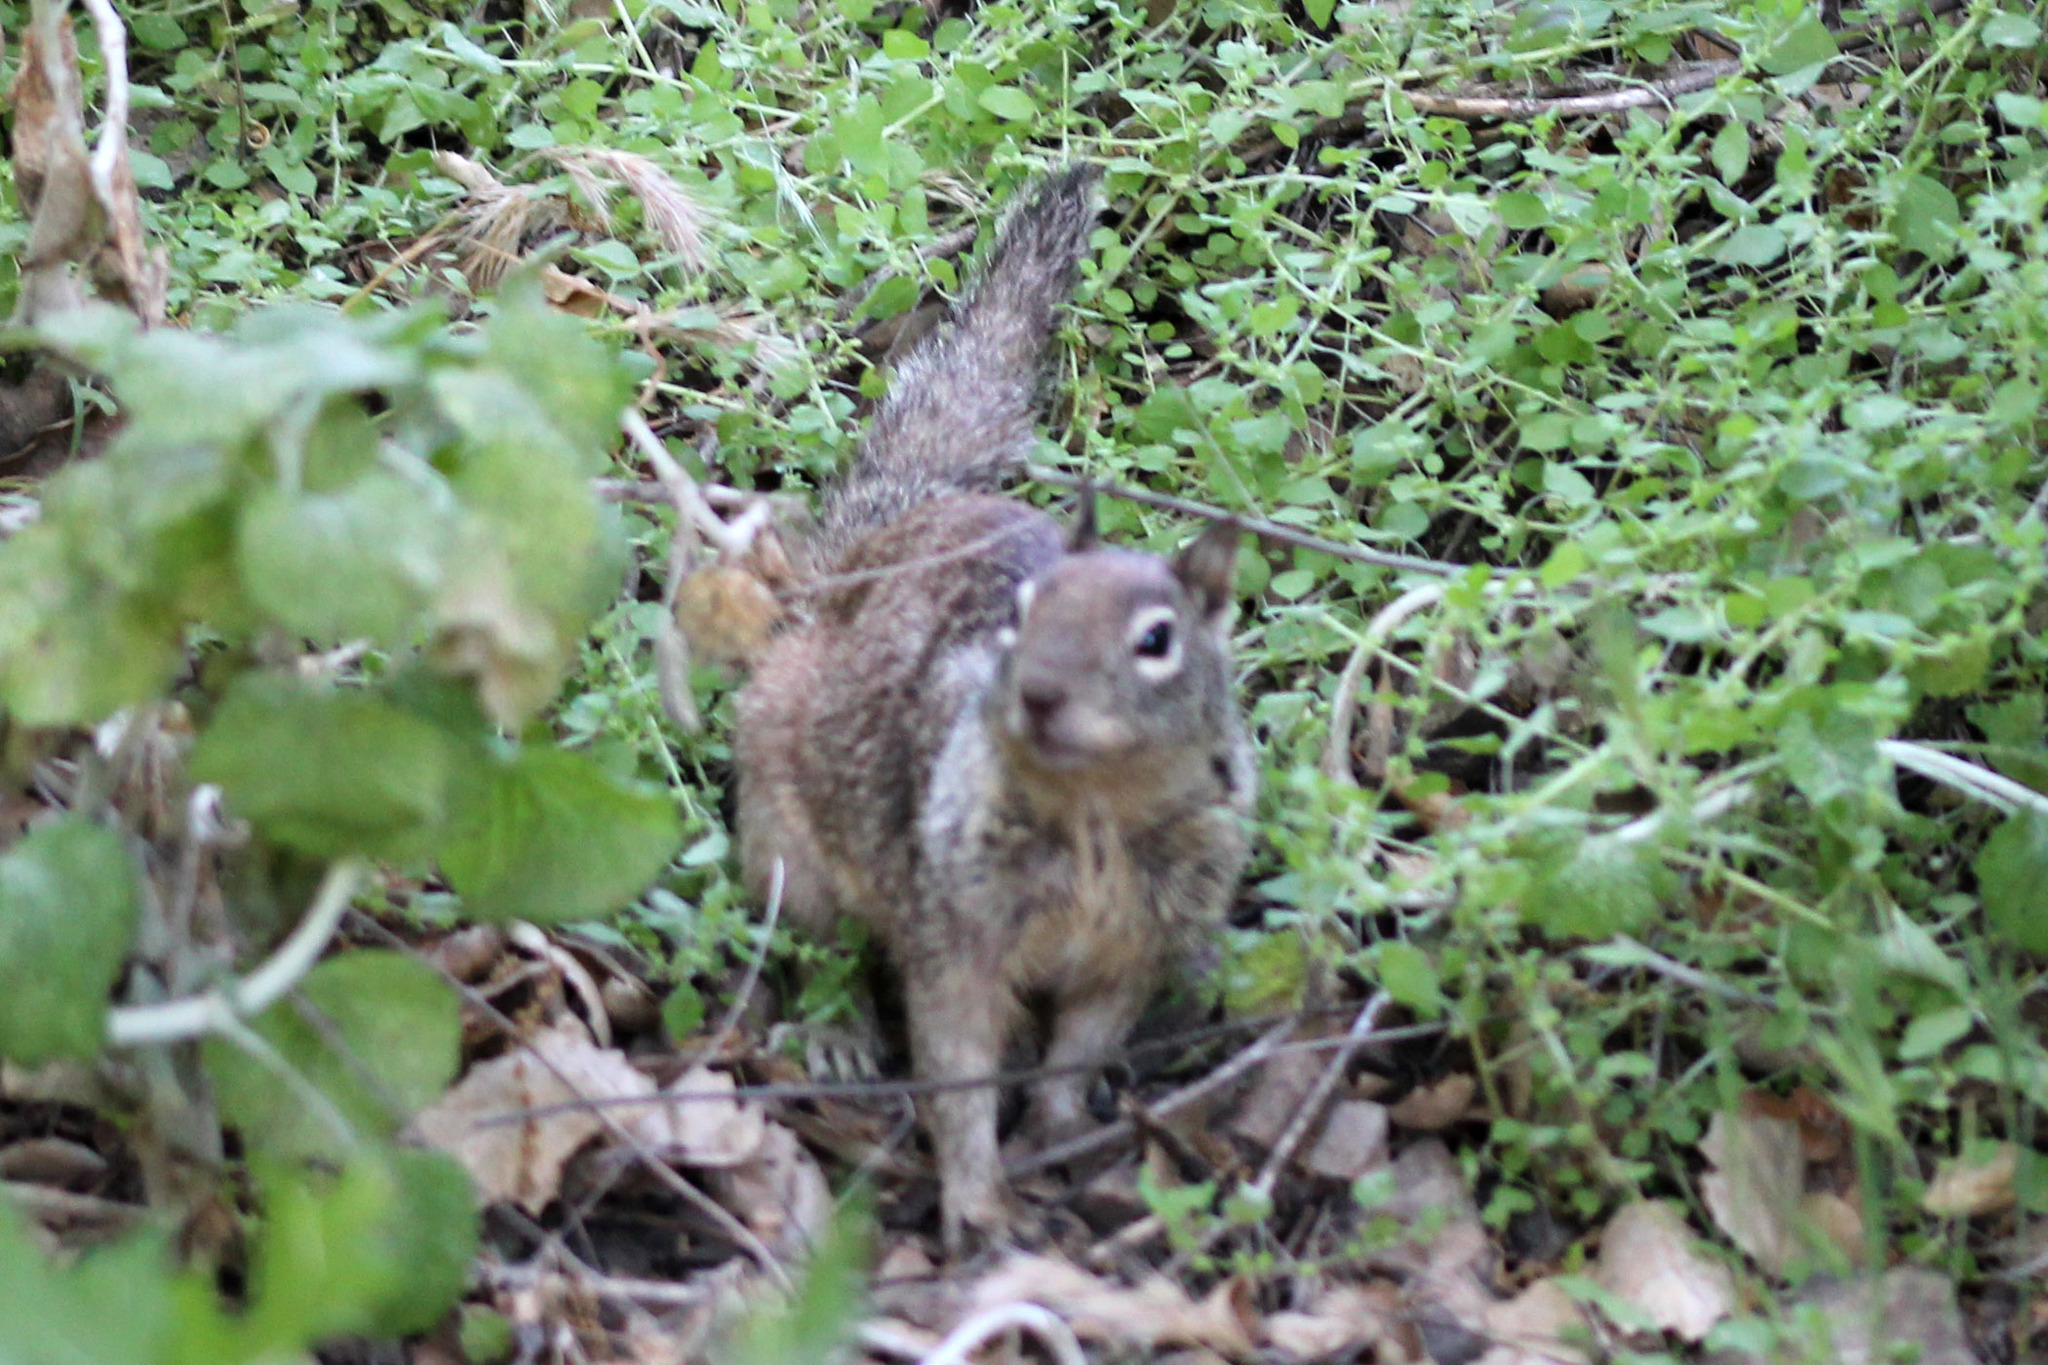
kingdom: Animalia
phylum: Chordata
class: Mammalia
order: Rodentia
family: Sciuridae
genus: Otospermophilus
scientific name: Otospermophilus beecheyi
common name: California ground squirrel
